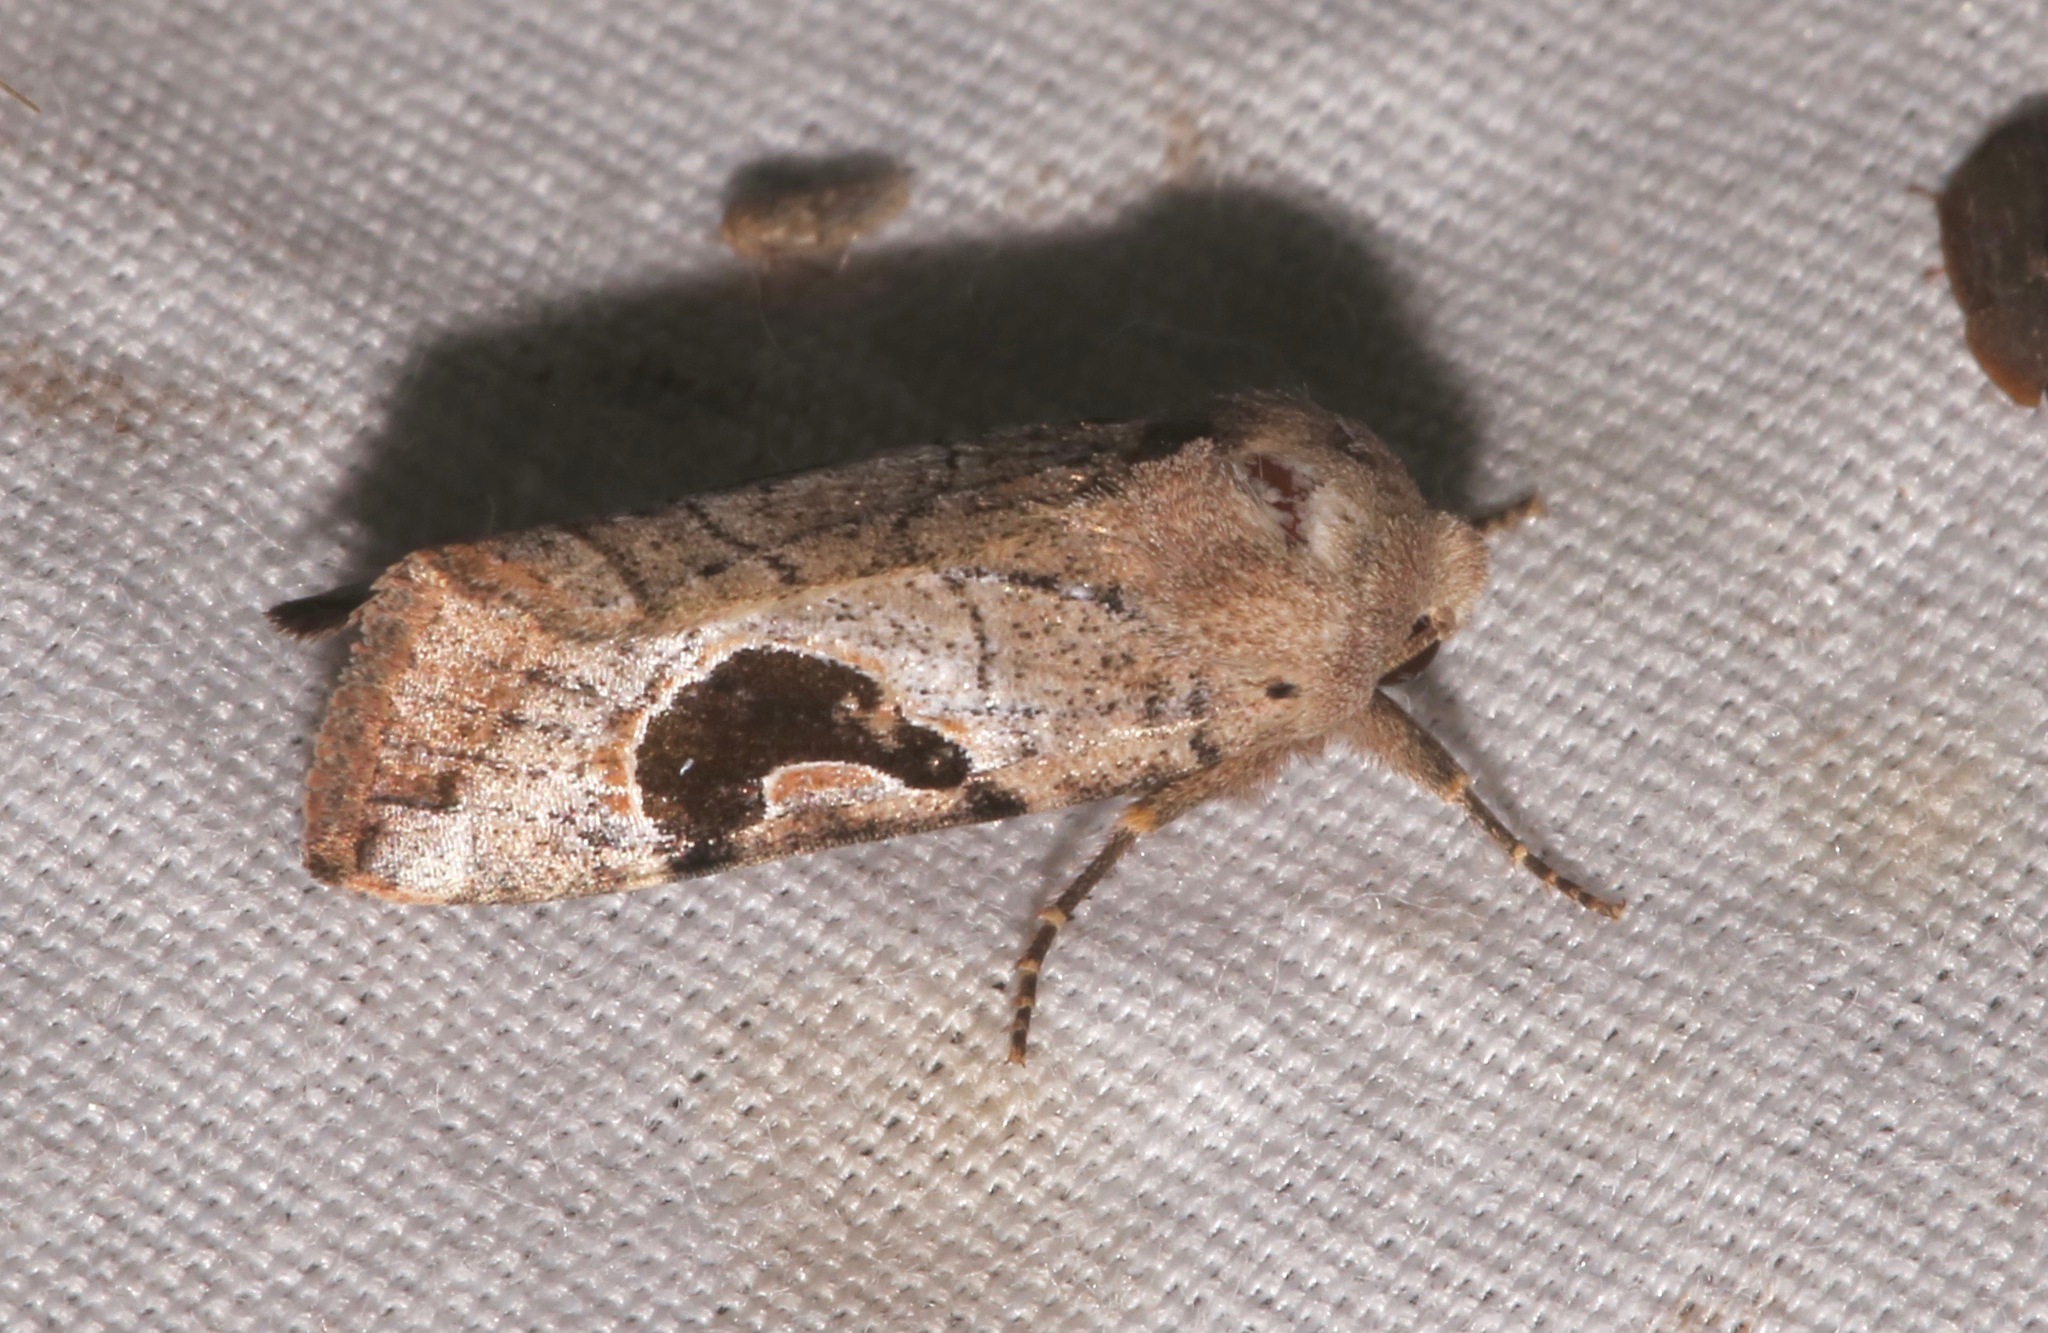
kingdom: Animalia
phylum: Arthropoda
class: Insecta
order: Lepidoptera
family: Noctuidae
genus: Eriopyga
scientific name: Eriopyga lunata
